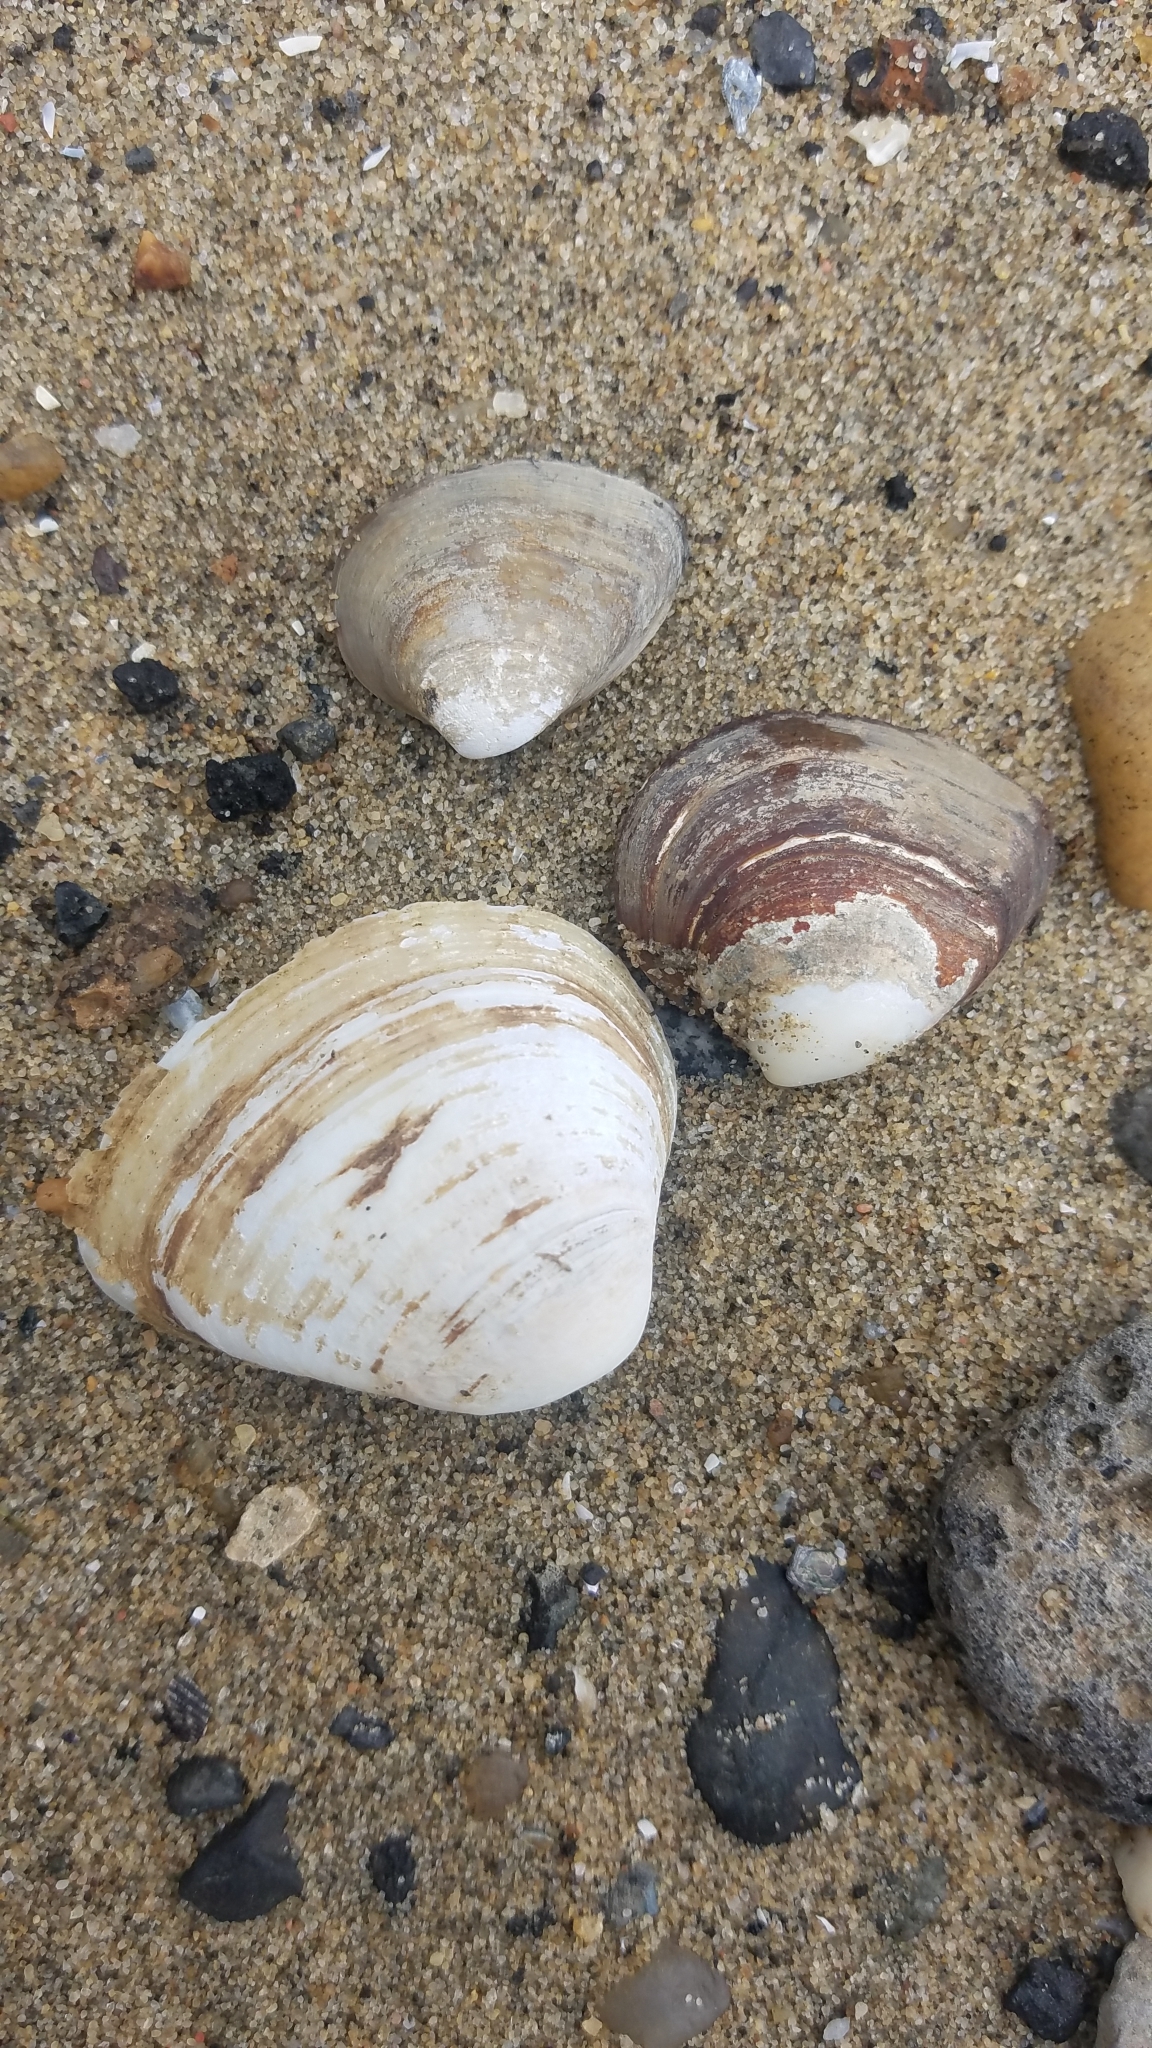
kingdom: Animalia
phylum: Mollusca
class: Bivalvia
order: Venerida
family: Mactridae
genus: Rangia
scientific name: Rangia cuneata
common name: Atlantic rangia
